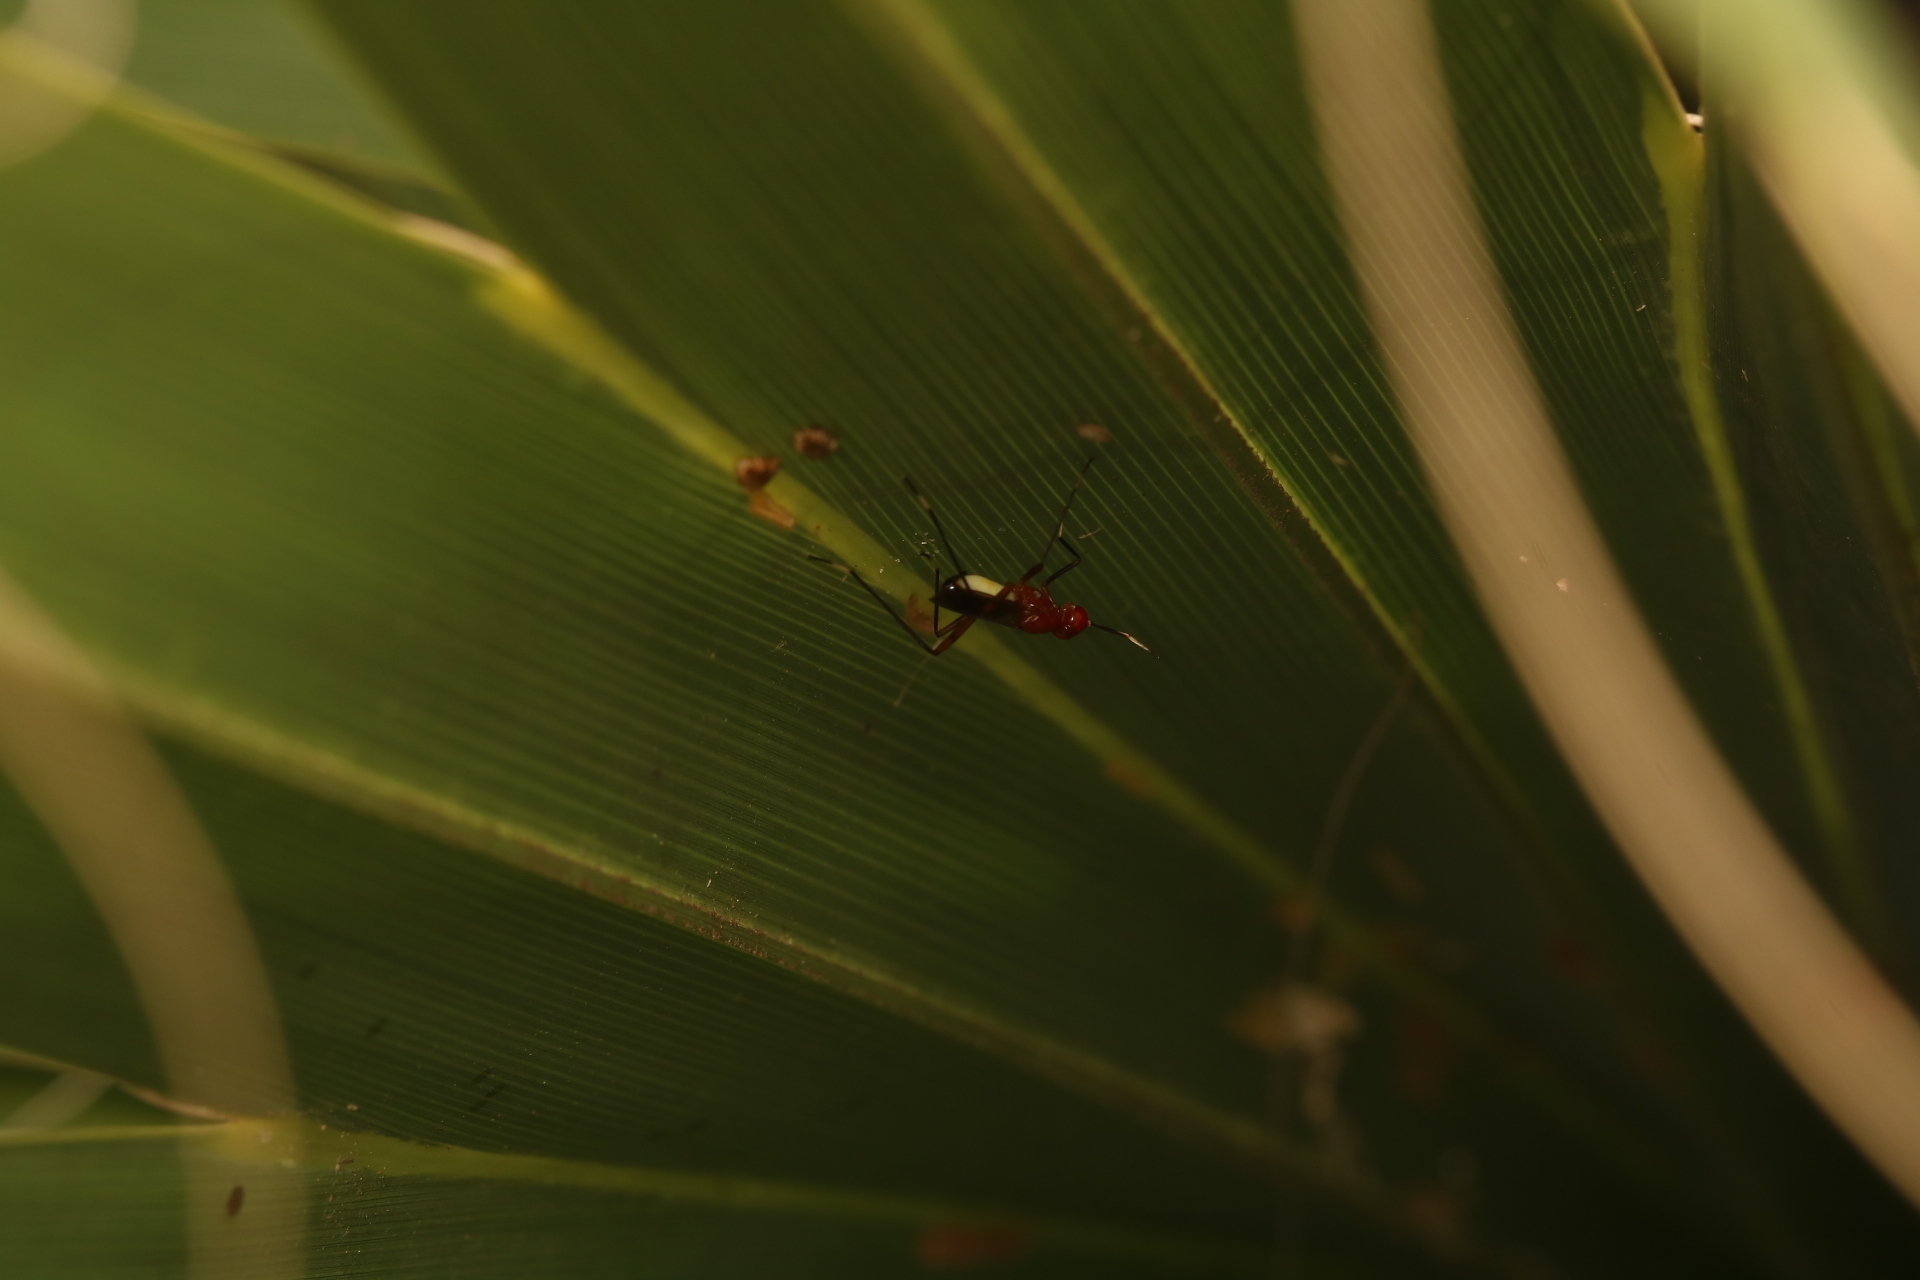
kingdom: Animalia
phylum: Arthropoda
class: Insecta
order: Diptera
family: Micropezidae
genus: Grallipeza
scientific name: Grallipeza nebulosa
